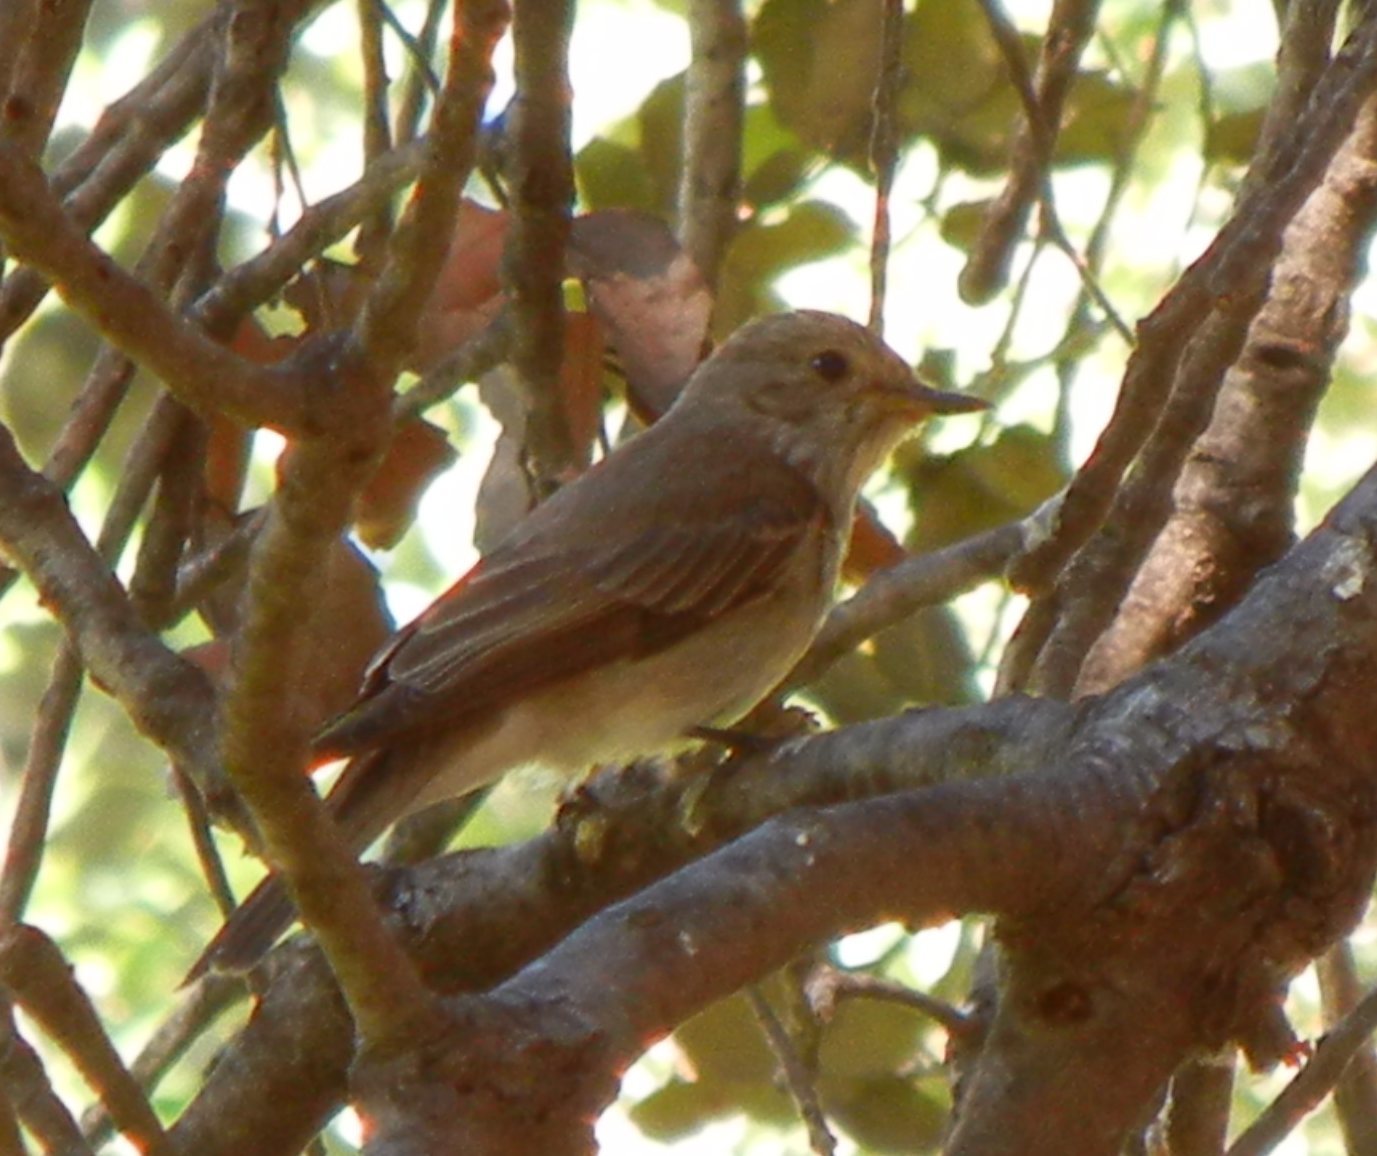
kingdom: Animalia
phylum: Chordata
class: Aves
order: Passeriformes
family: Muscicapidae
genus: Muscicapa
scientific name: Muscicapa striata
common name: Spotted flycatcher
